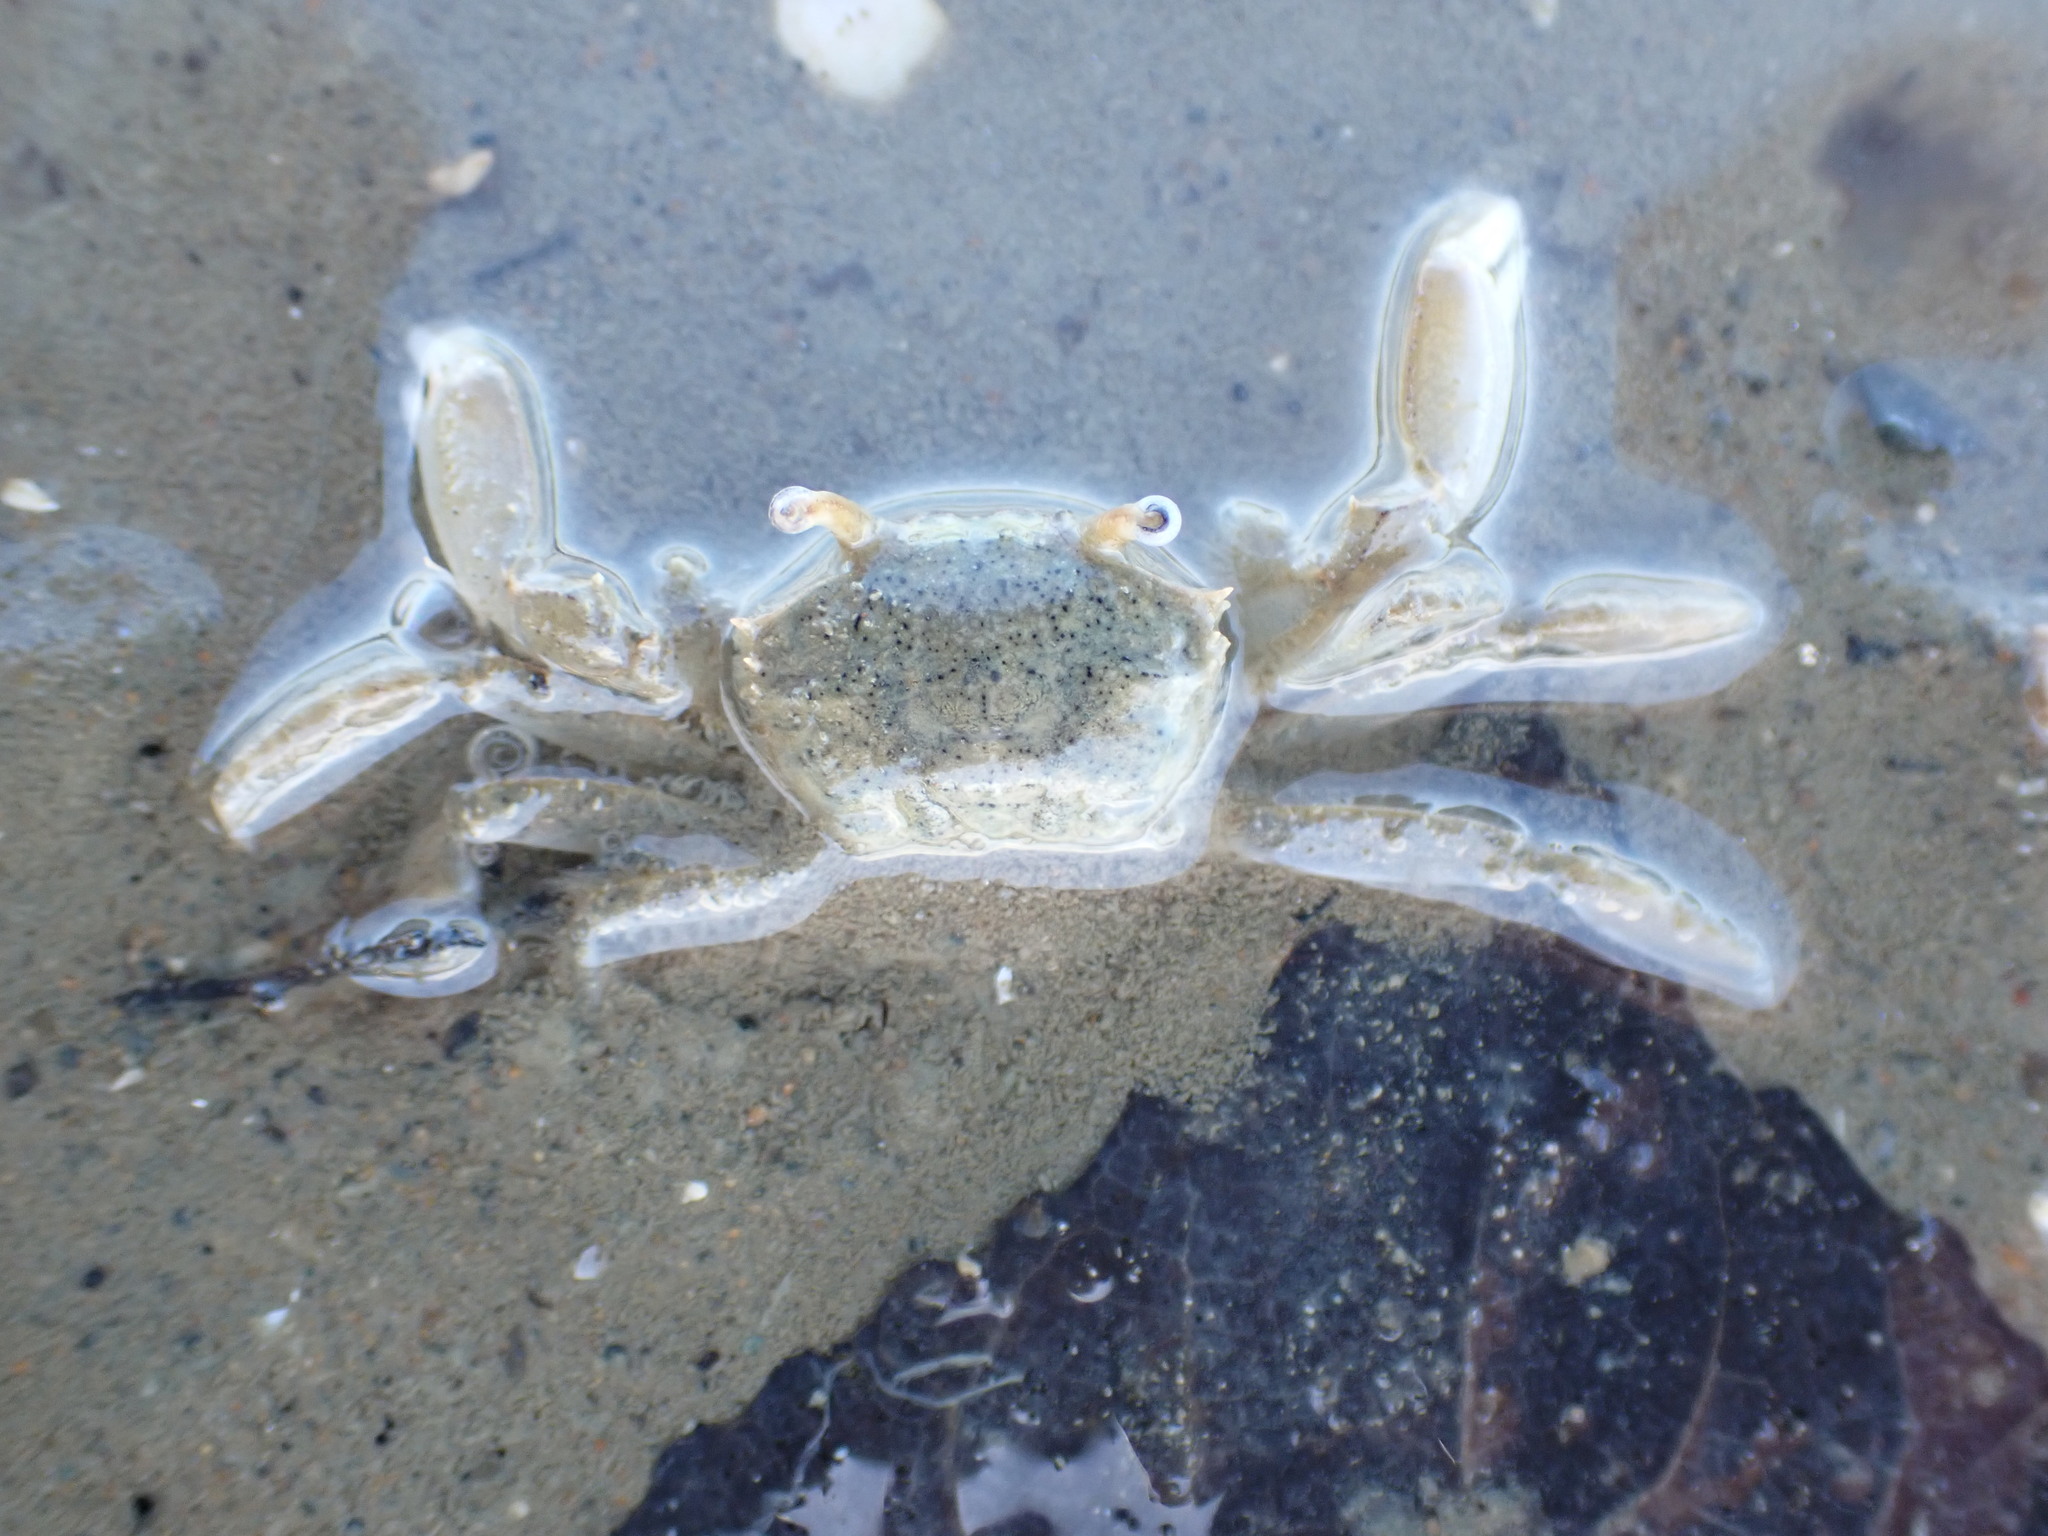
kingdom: Animalia
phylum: Arthropoda
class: Malacostraca
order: Decapoda
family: Macrophthalmidae
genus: Hemiplax
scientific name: Hemiplax hirtipes
